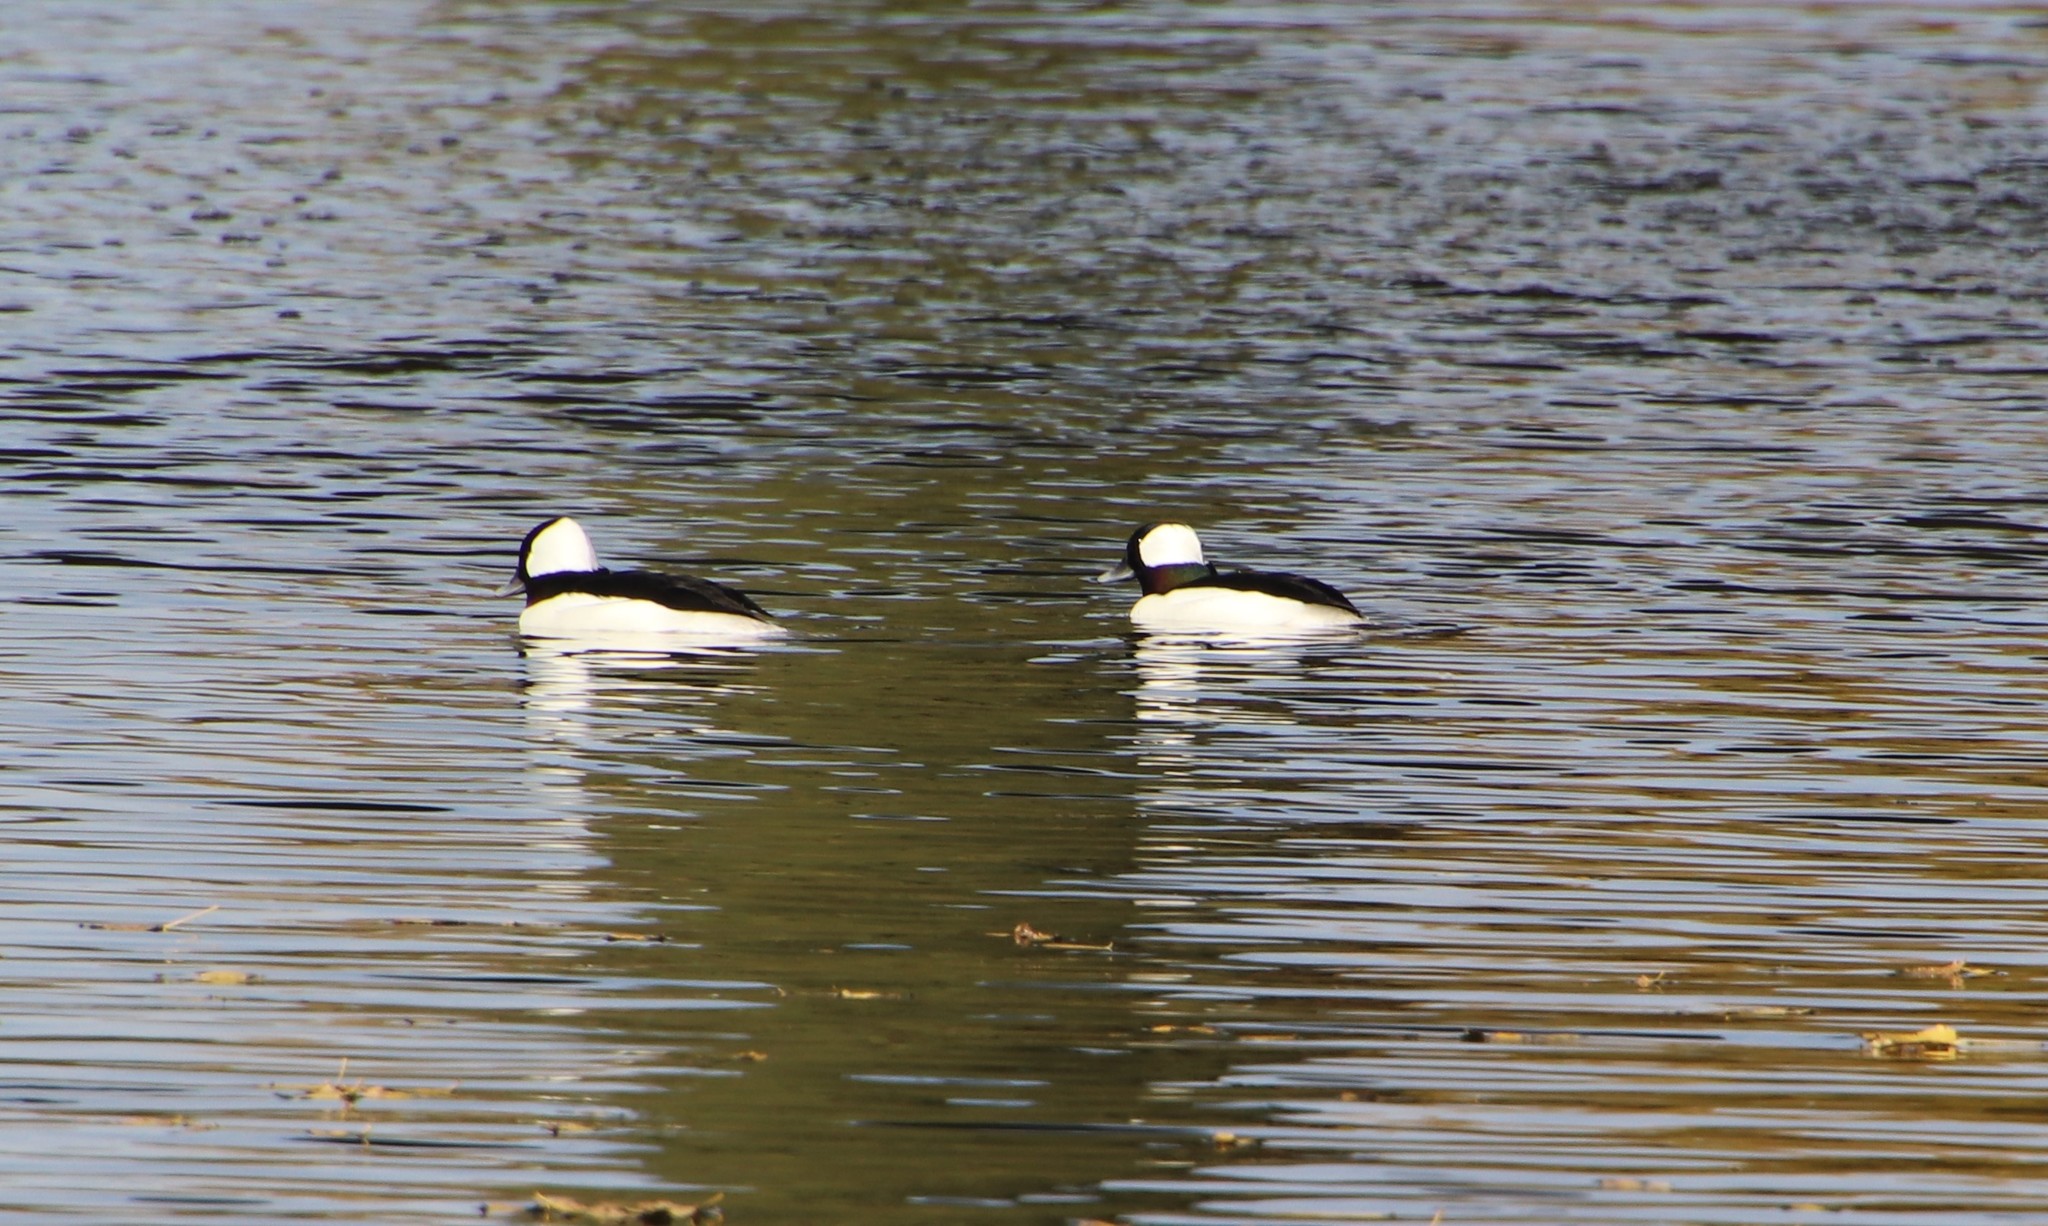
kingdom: Animalia
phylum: Chordata
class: Aves
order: Anseriformes
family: Anatidae
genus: Bucephala
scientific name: Bucephala albeola
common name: Bufflehead
